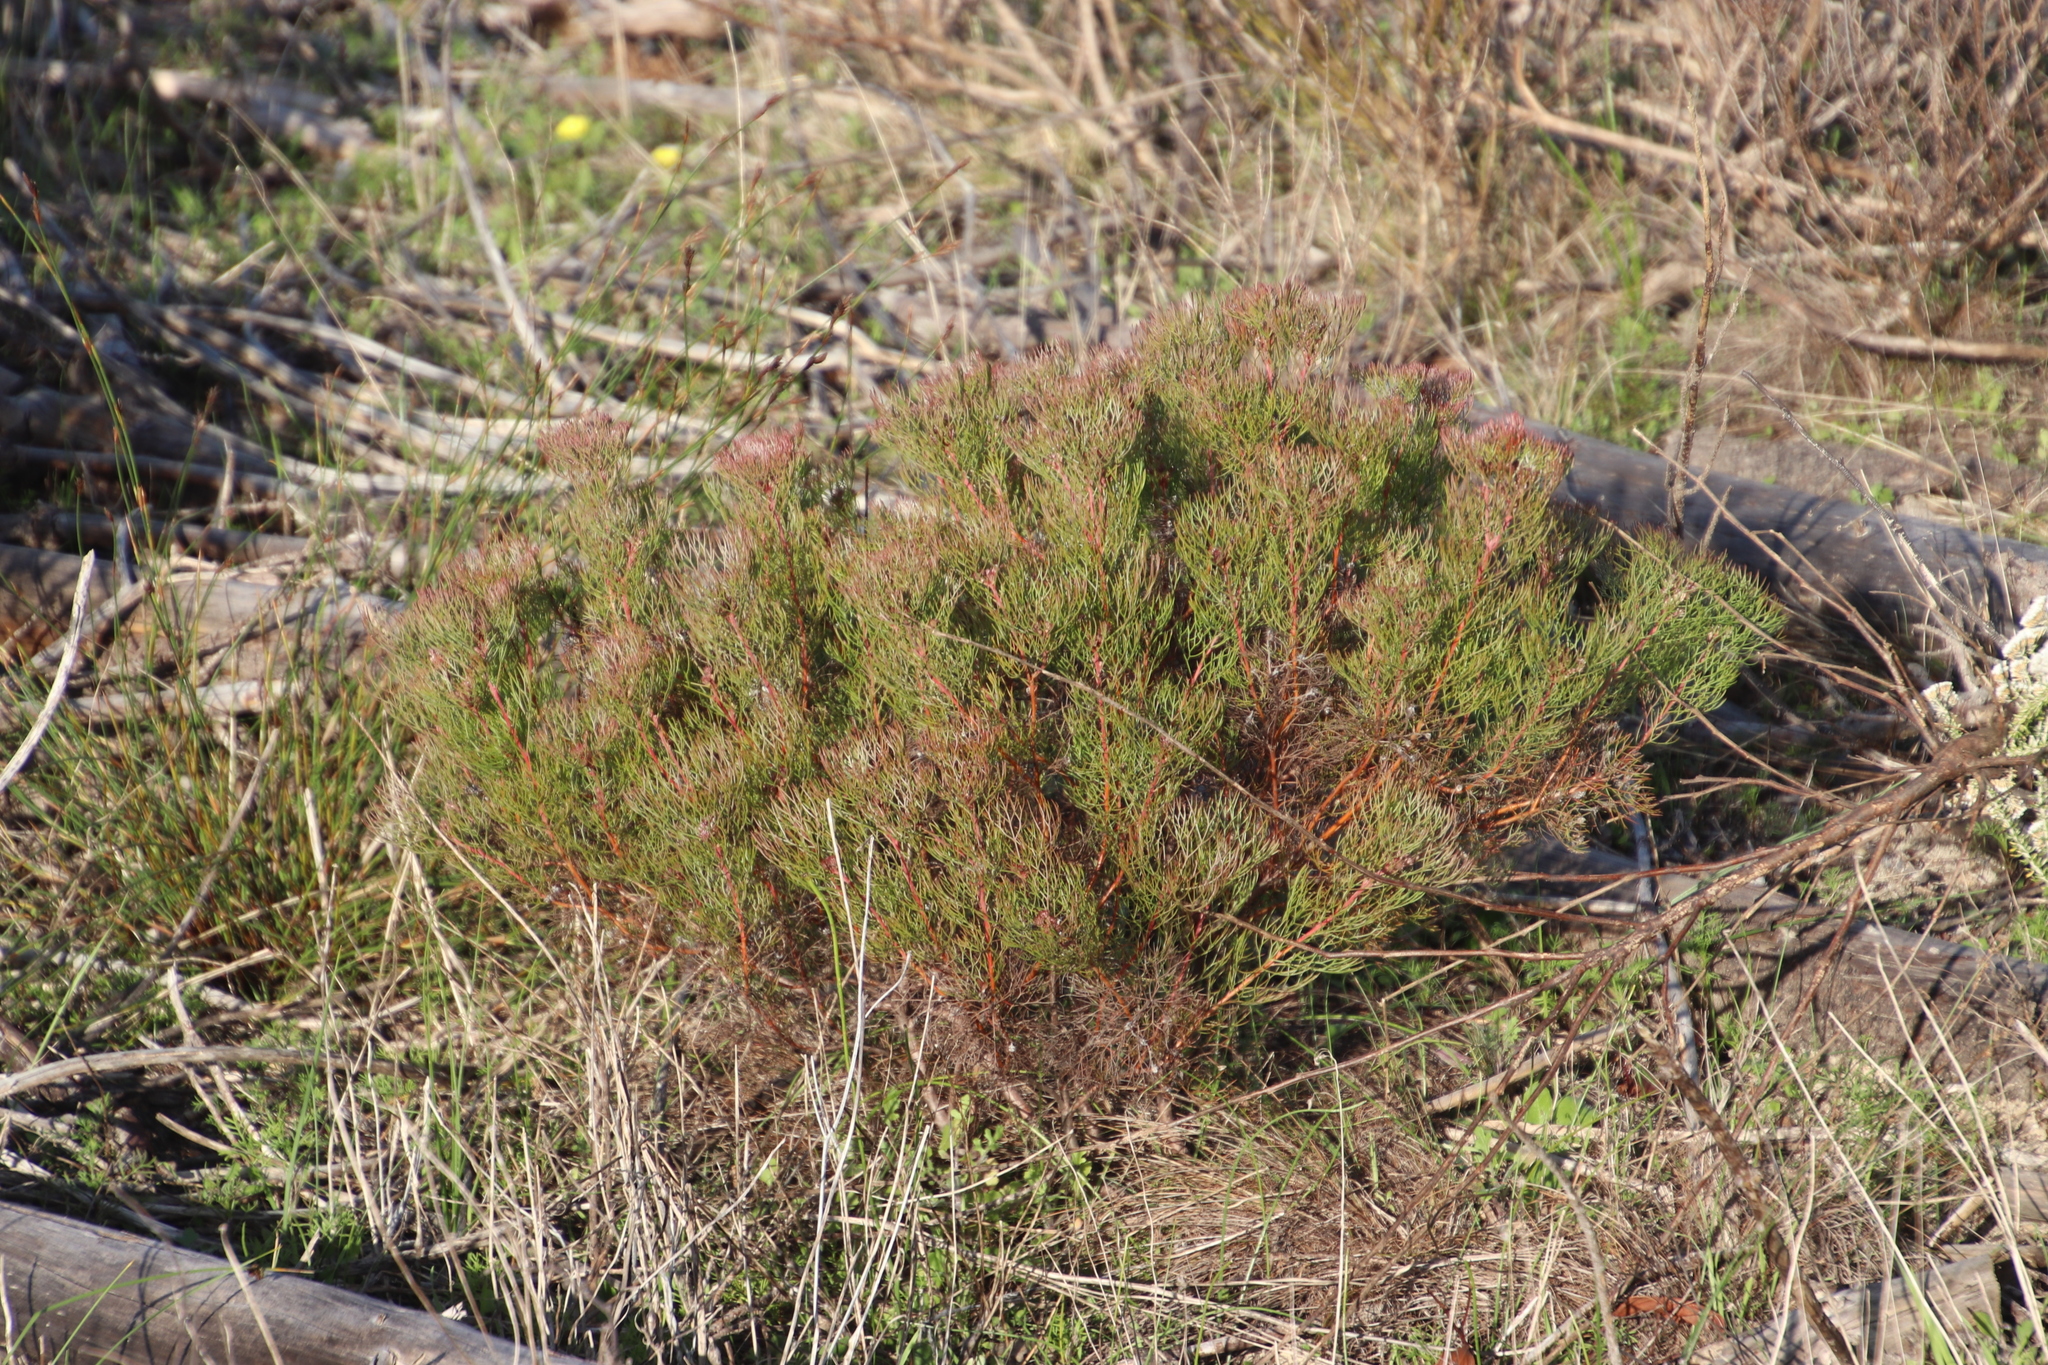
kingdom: Plantae
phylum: Tracheophyta
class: Magnoliopsida
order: Proteales
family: Proteaceae
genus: Serruria
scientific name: Serruria fasciflora
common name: Common pin spiderhead
